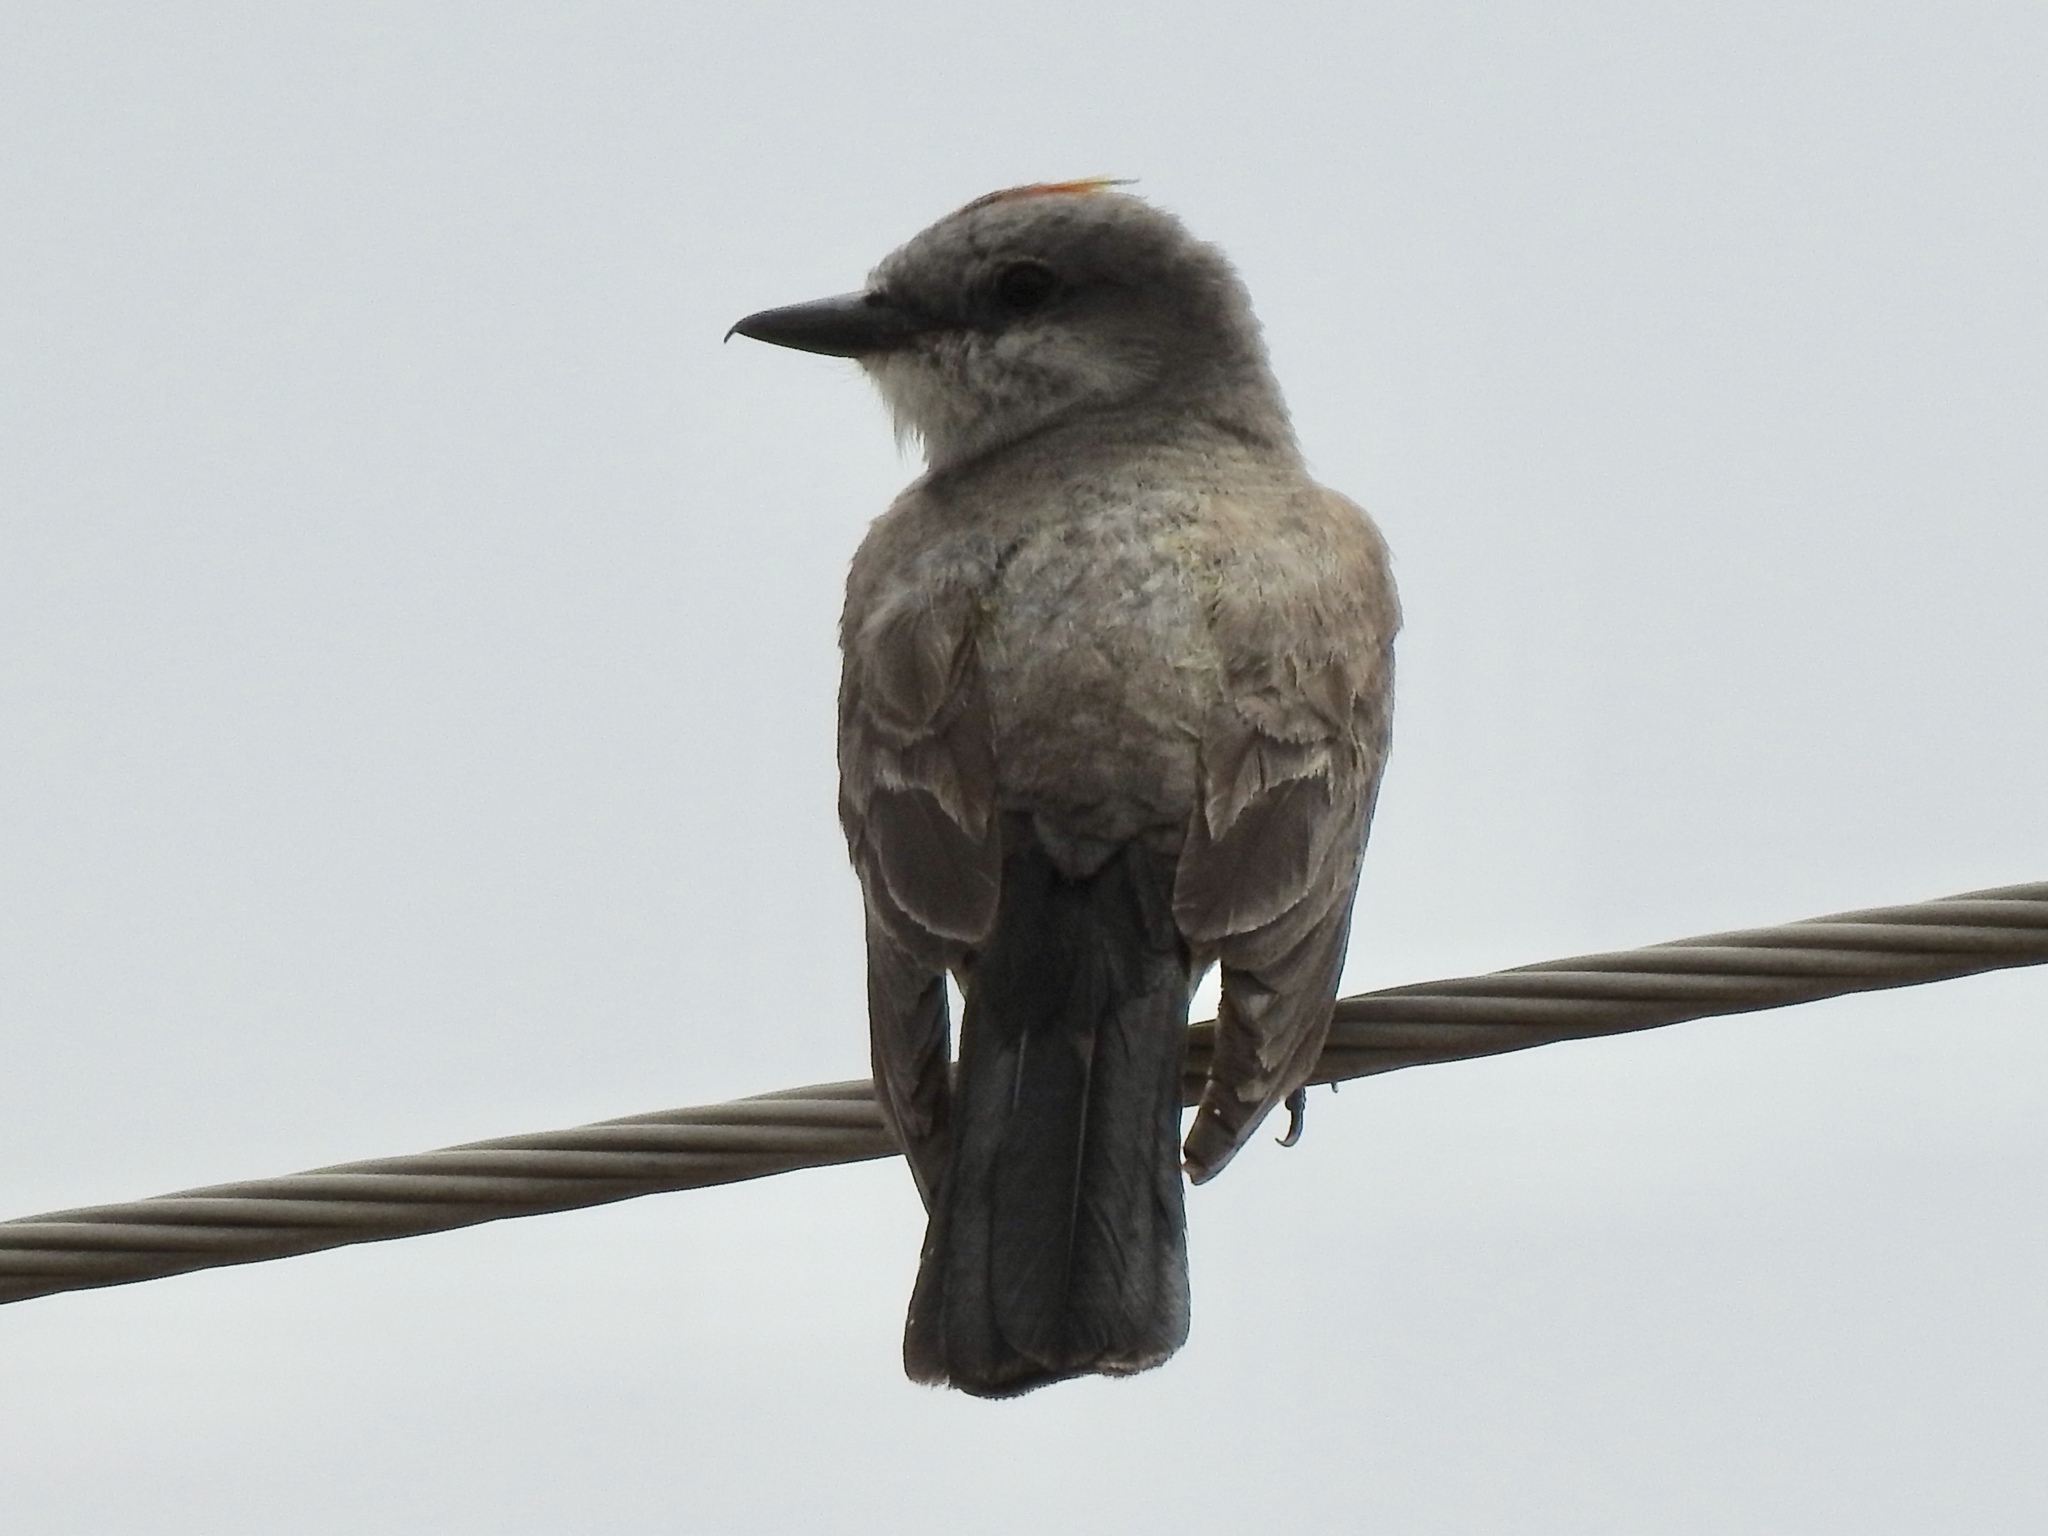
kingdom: Animalia
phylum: Chordata
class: Aves
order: Passeriformes
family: Tyrannidae
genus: Tyrannus
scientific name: Tyrannus verticalis
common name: Western kingbird
